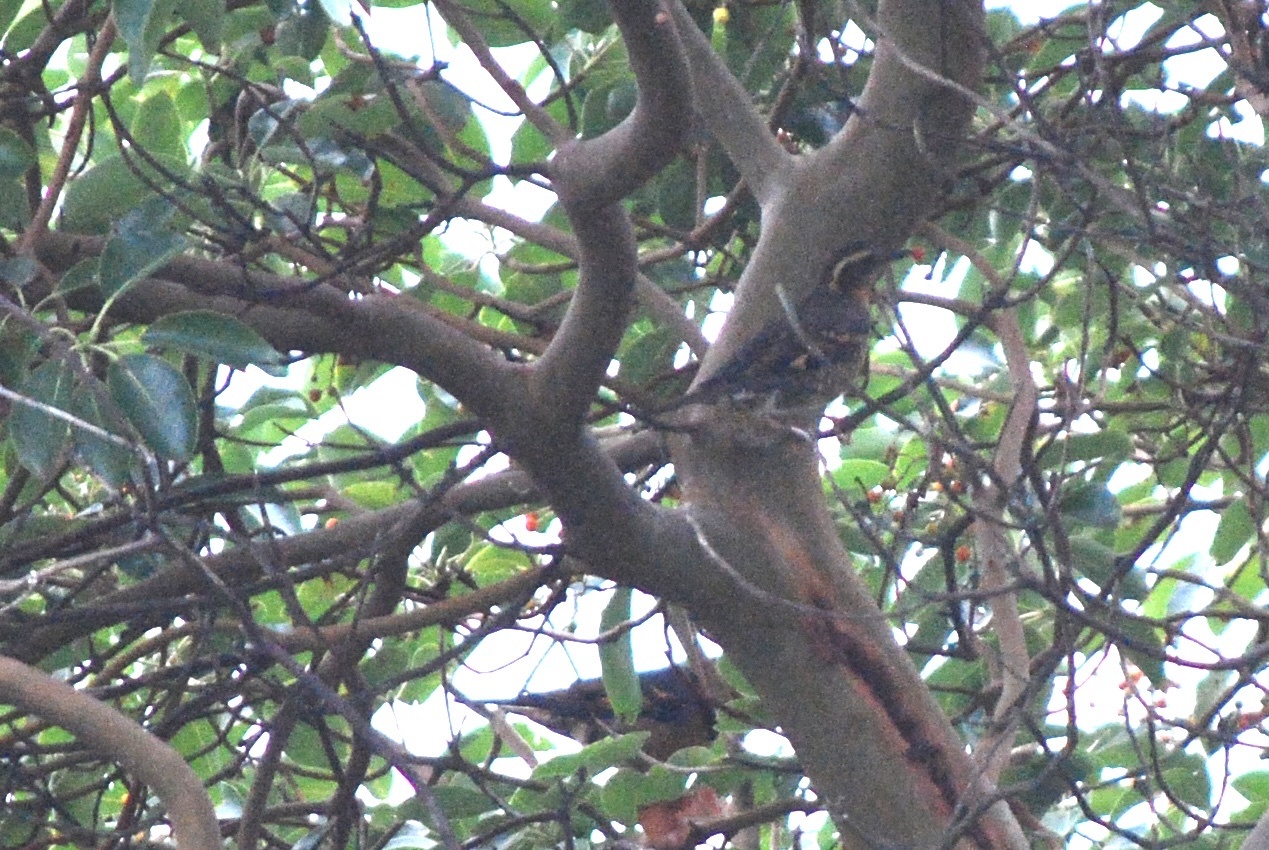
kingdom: Animalia
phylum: Chordata
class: Aves
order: Passeriformes
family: Turdidae
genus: Ixoreus
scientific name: Ixoreus naevius
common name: Varied thrush
